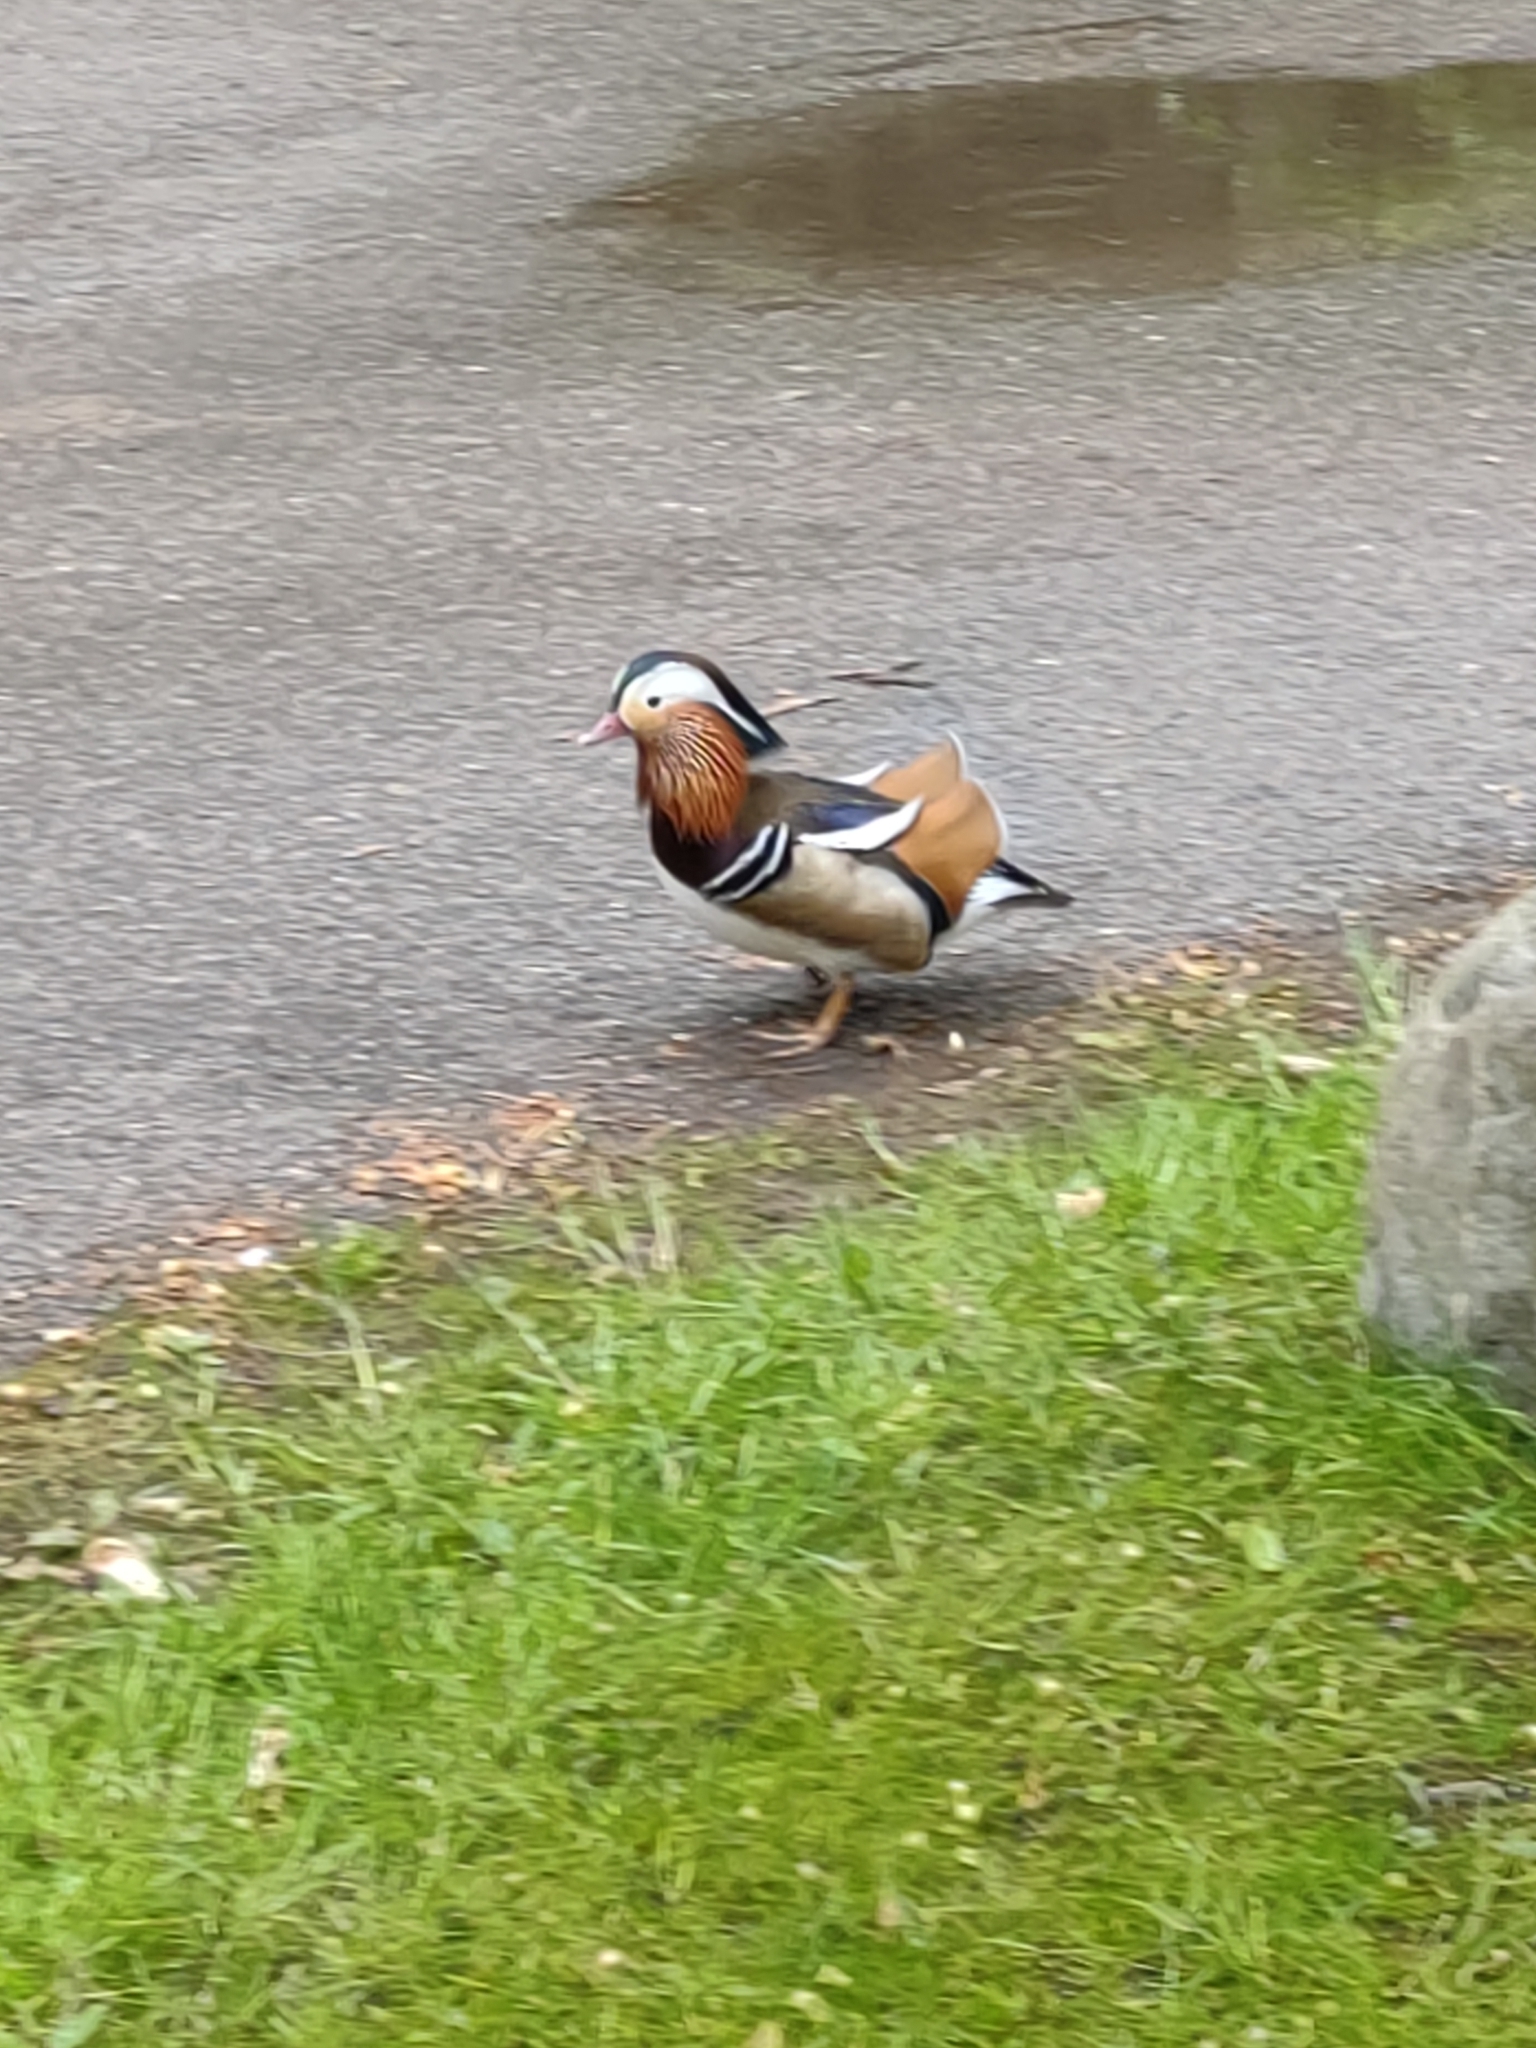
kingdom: Animalia
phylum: Chordata
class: Aves
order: Anseriformes
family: Anatidae
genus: Aix
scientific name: Aix galericulata
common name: Mandarin duck
